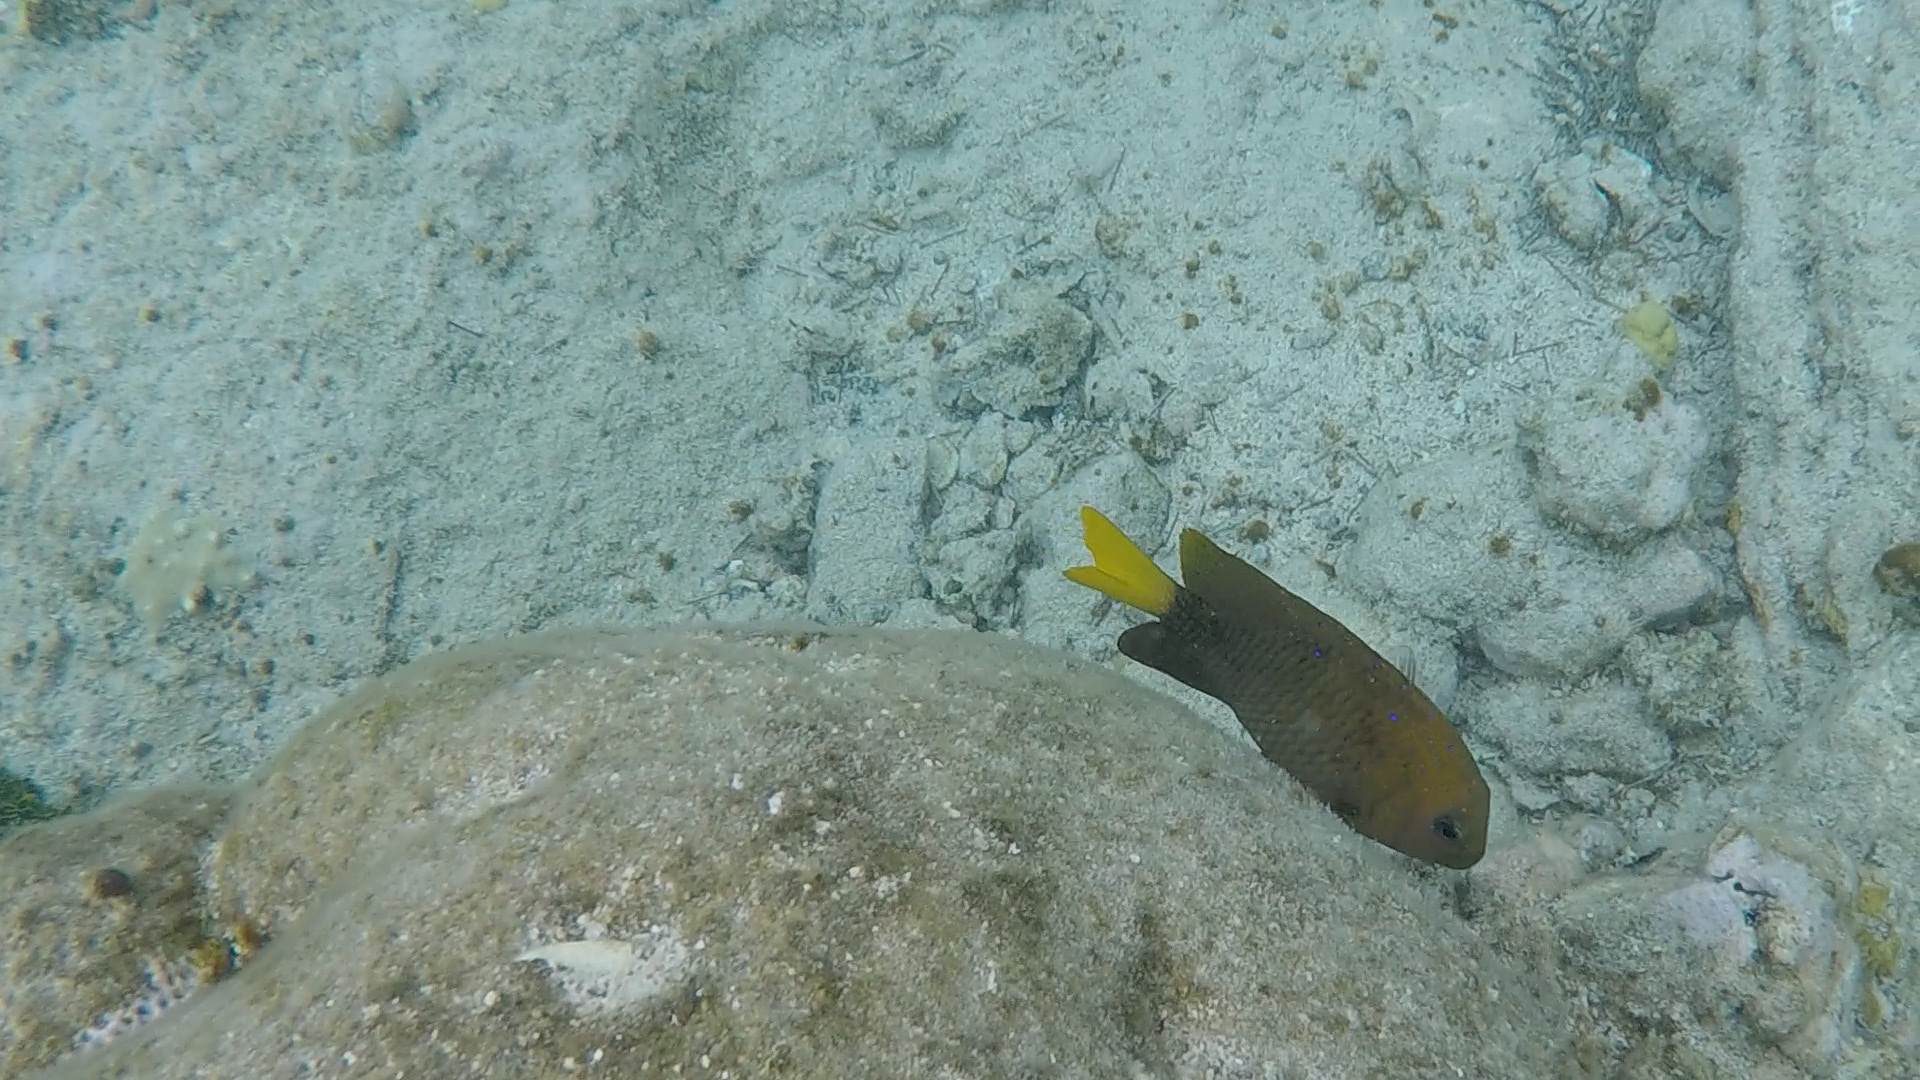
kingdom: Animalia
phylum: Chordata
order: Perciformes
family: Pomacentridae
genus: Microspathodon
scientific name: Microspathodon chrysurus
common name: Yellowtail damselfish
